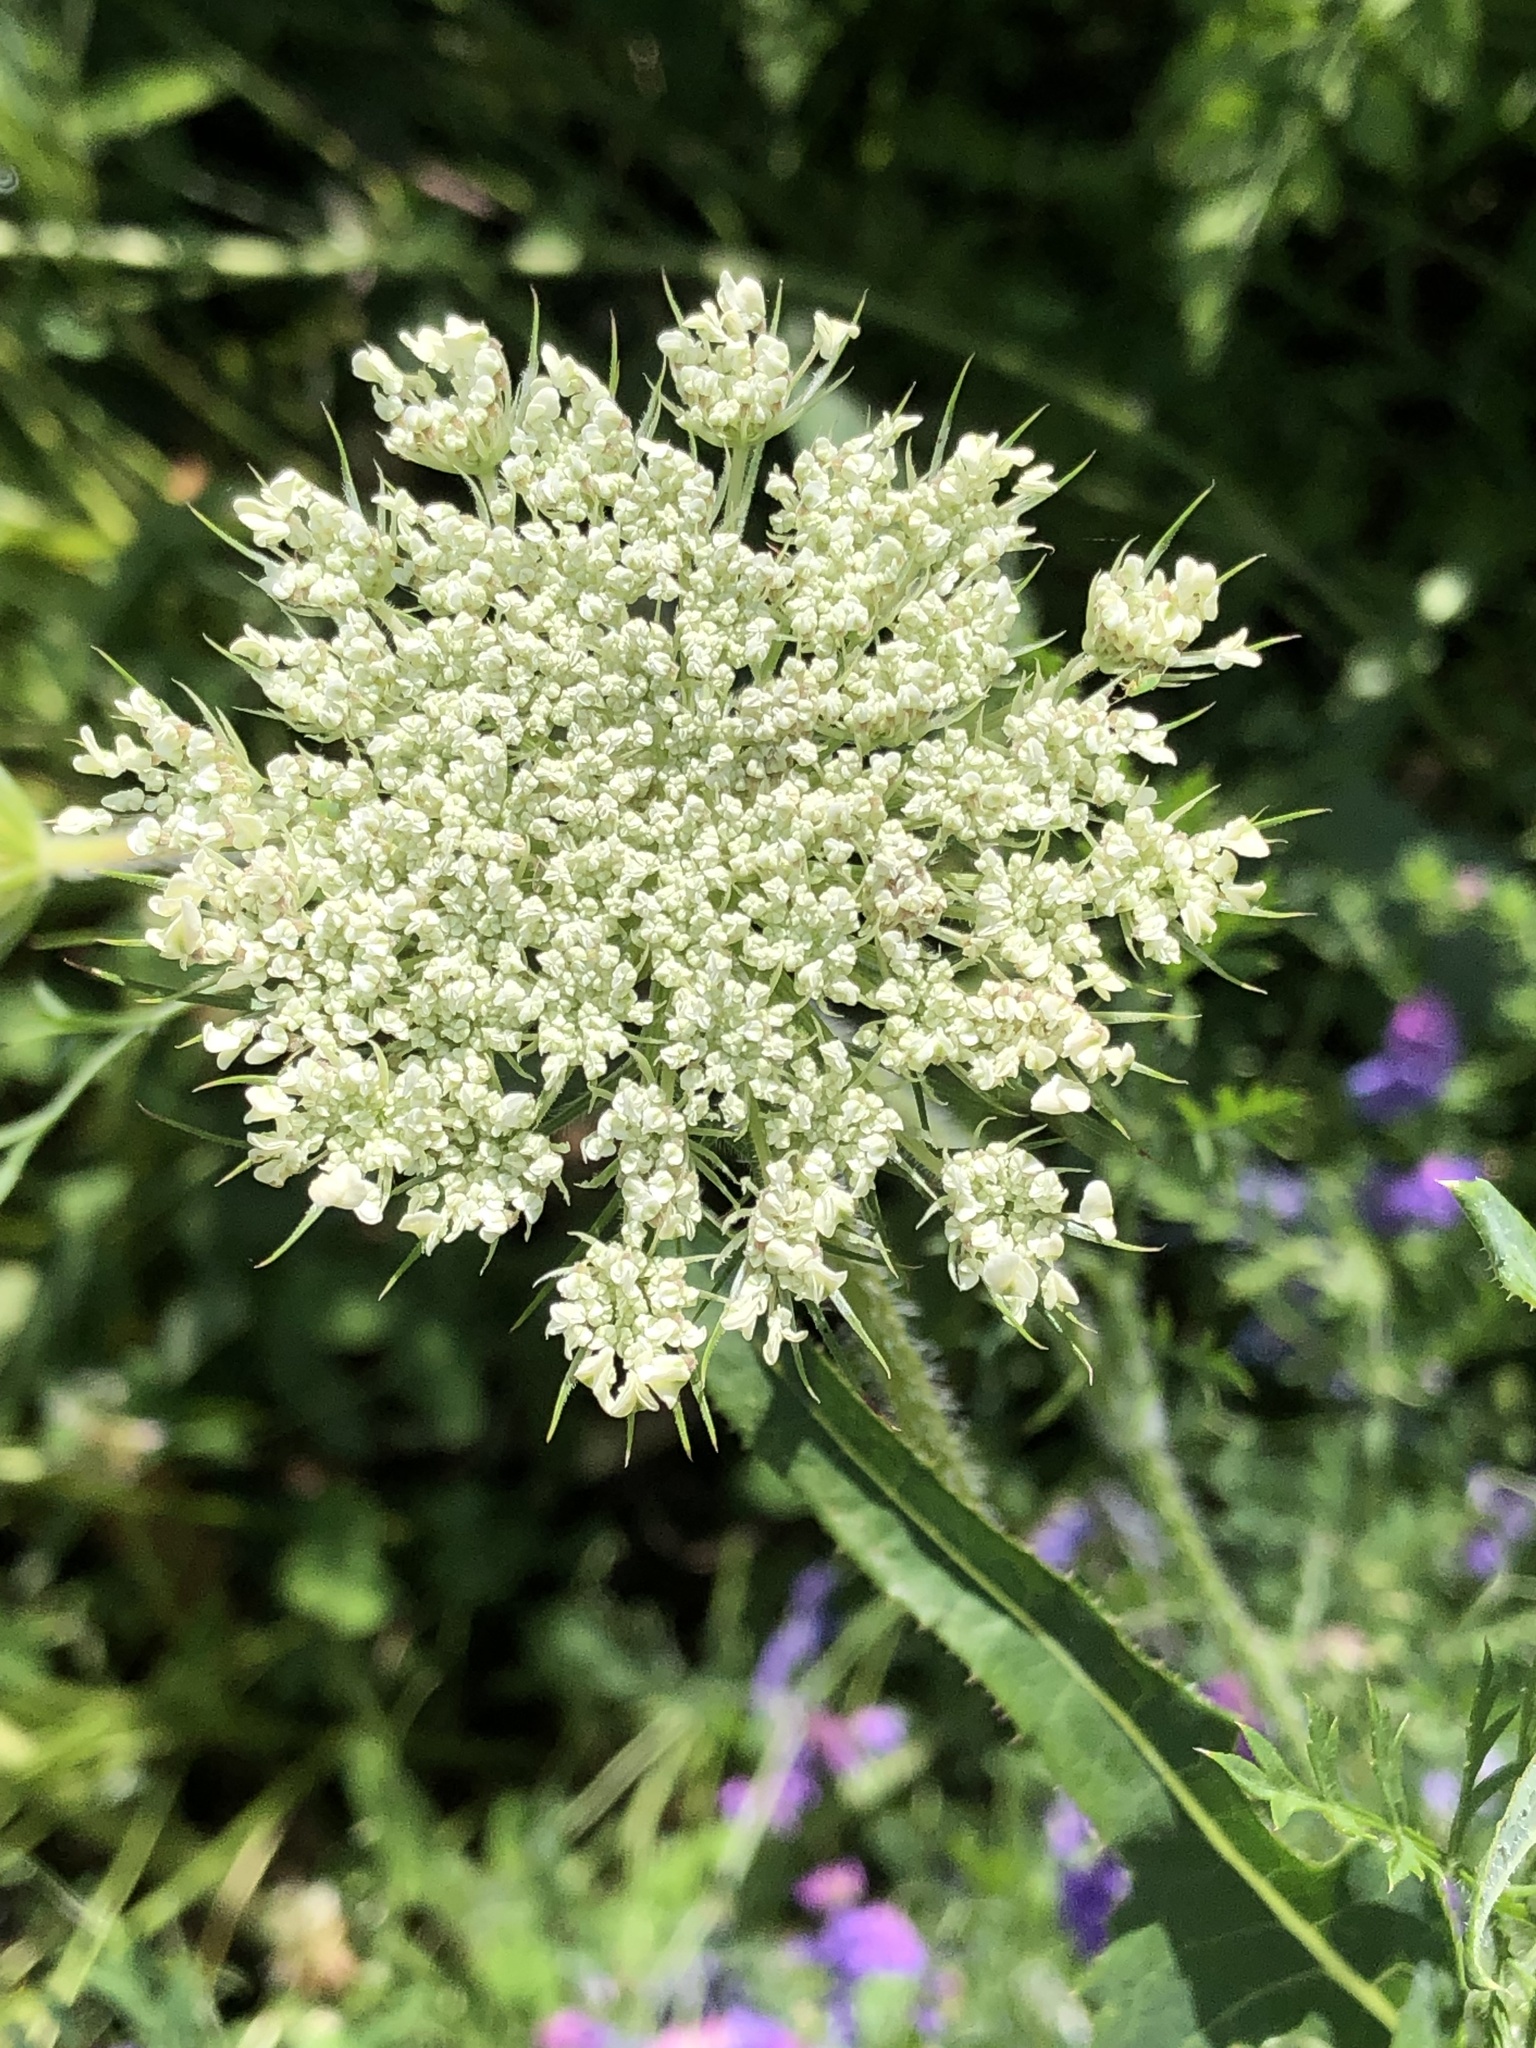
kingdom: Plantae
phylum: Tracheophyta
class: Magnoliopsida
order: Apiales
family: Apiaceae
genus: Daucus
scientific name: Daucus carota
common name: Wild carrot
